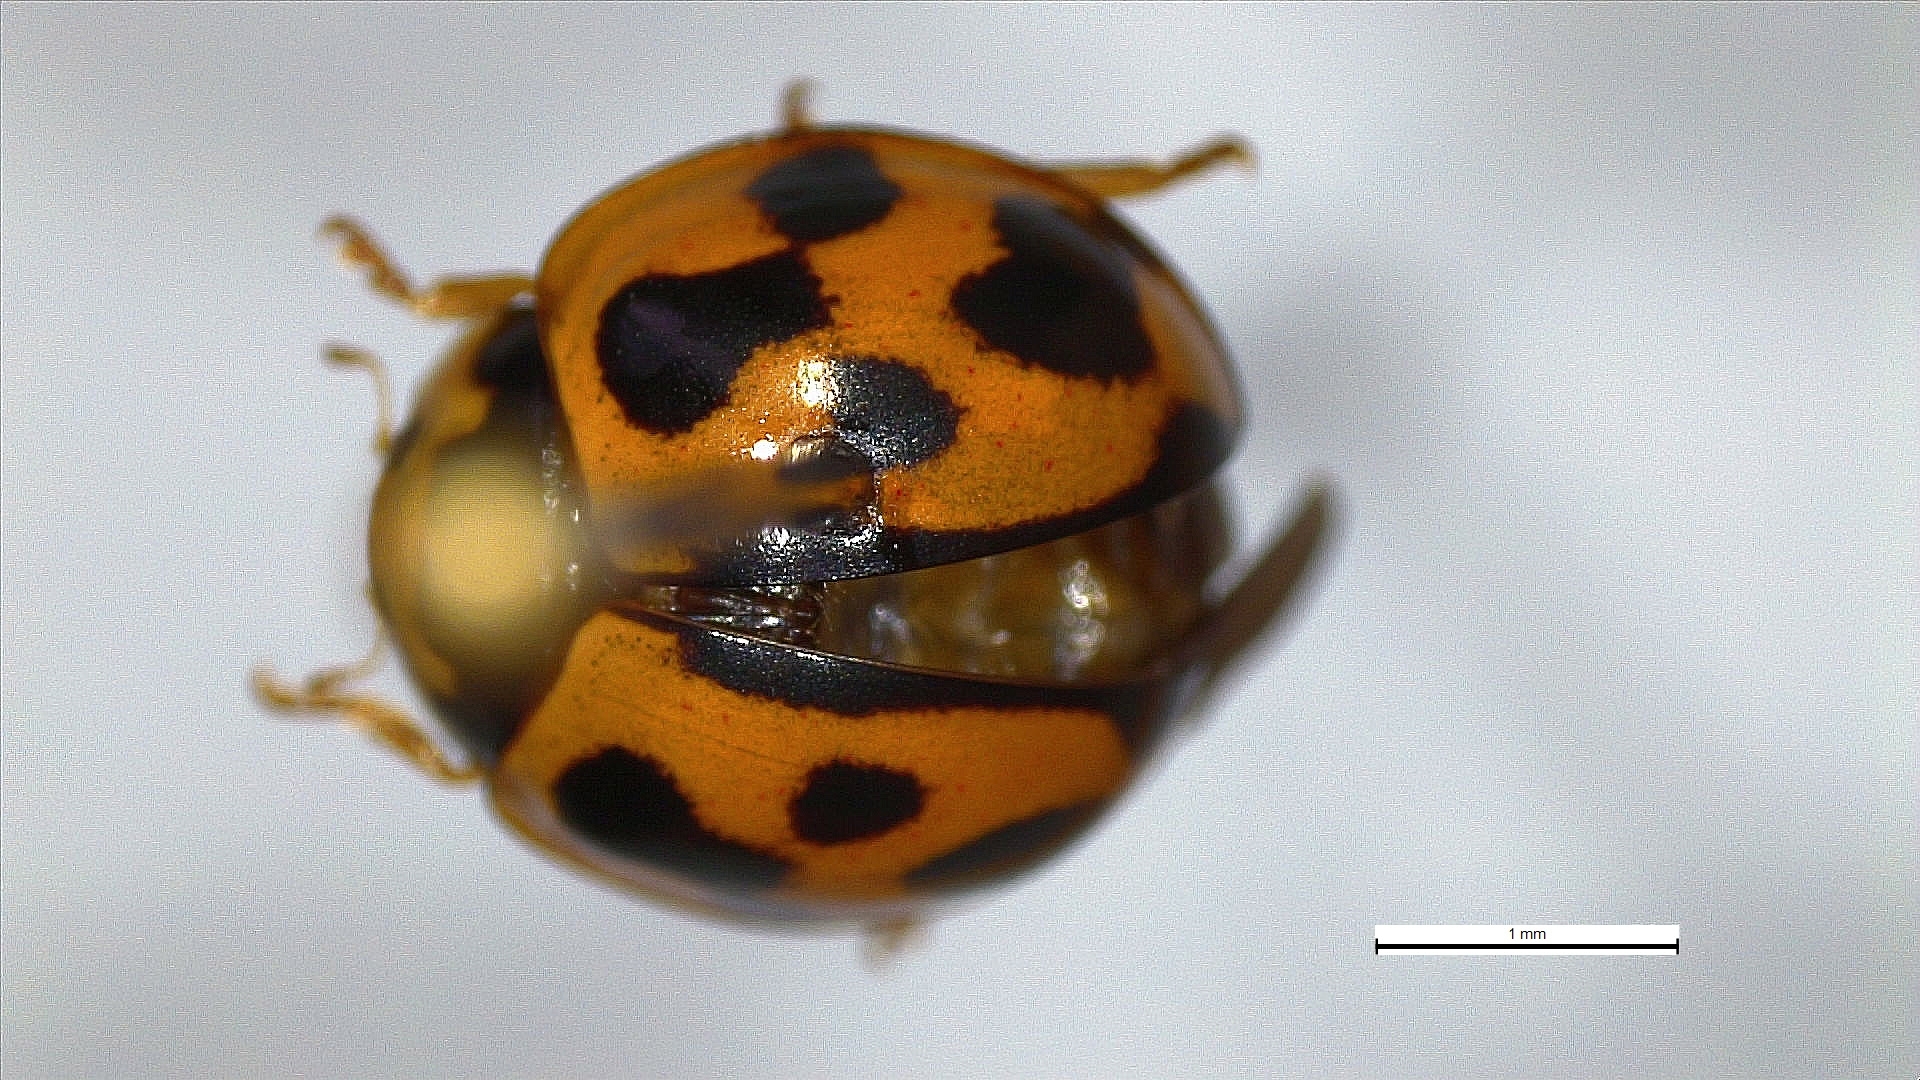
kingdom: Animalia
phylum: Arthropoda
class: Insecta
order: Coleoptera
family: Coccinellidae
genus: Coelophora
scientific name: Coelophora inaequalis
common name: Common australian lady beetle
